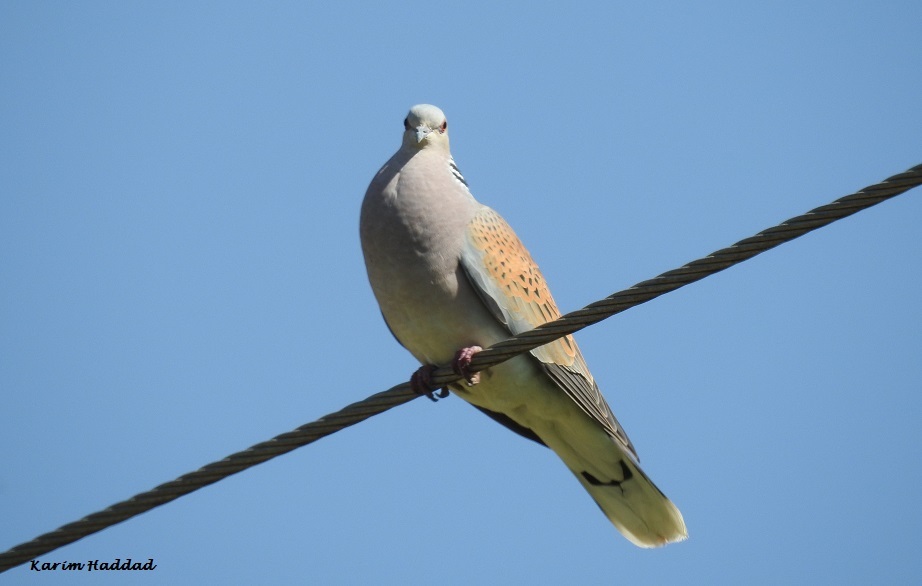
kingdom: Animalia
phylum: Chordata
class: Aves
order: Columbiformes
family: Columbidae
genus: Streptopelia
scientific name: Streptopelia turtur
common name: European turtle dove
